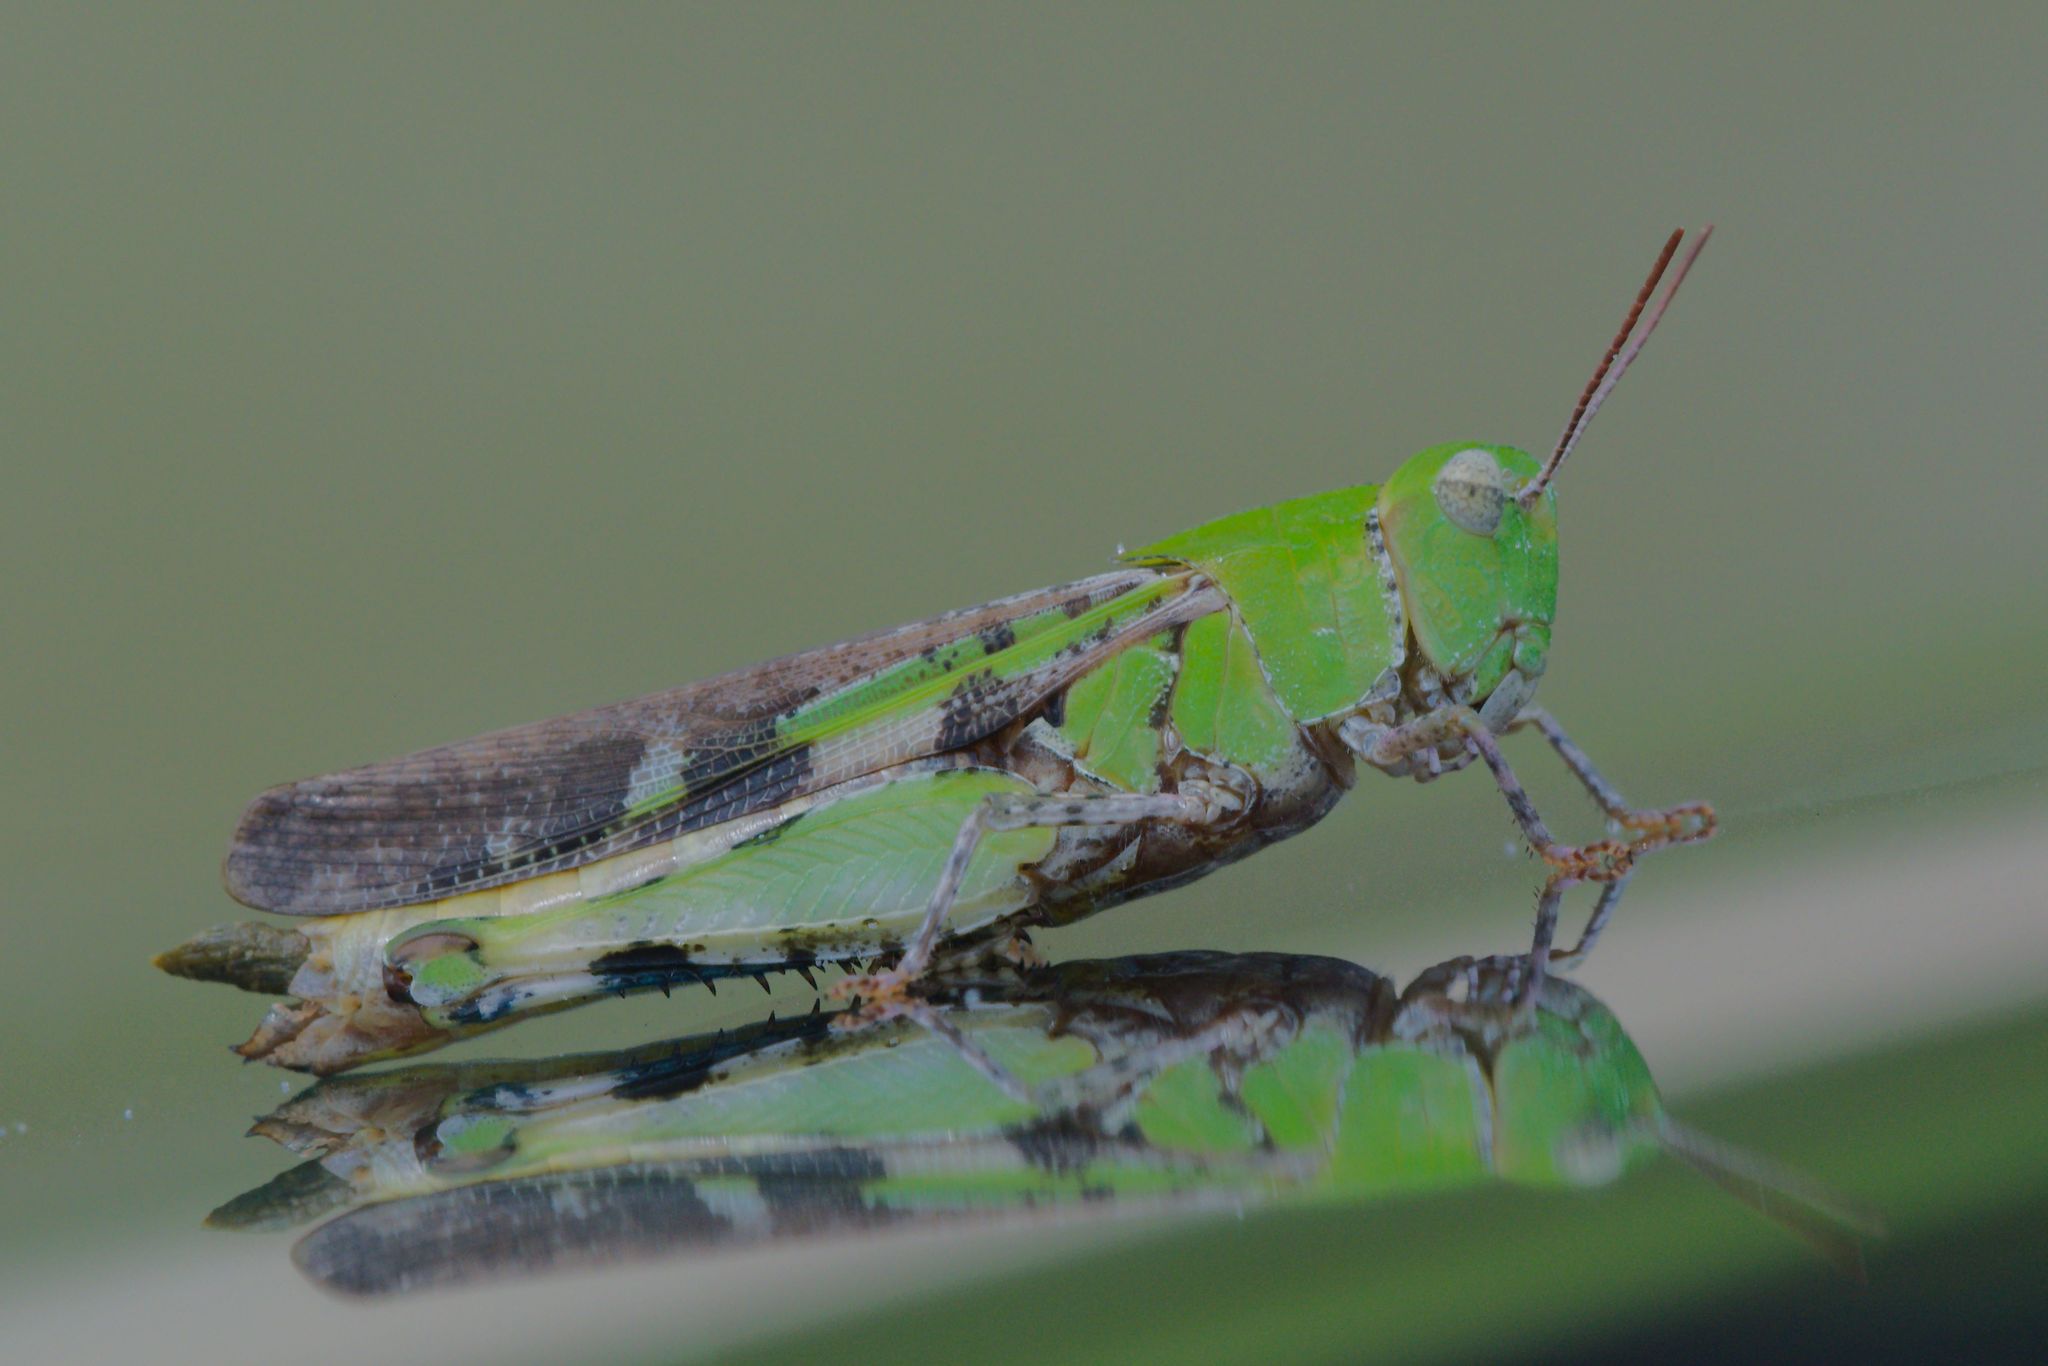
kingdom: Animalia
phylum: Arthropoda
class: Insecta
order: Orthoptera
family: Acrididae
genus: Chortophaga
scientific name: Chortophaga australior
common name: Southern green-striped grasshopper
